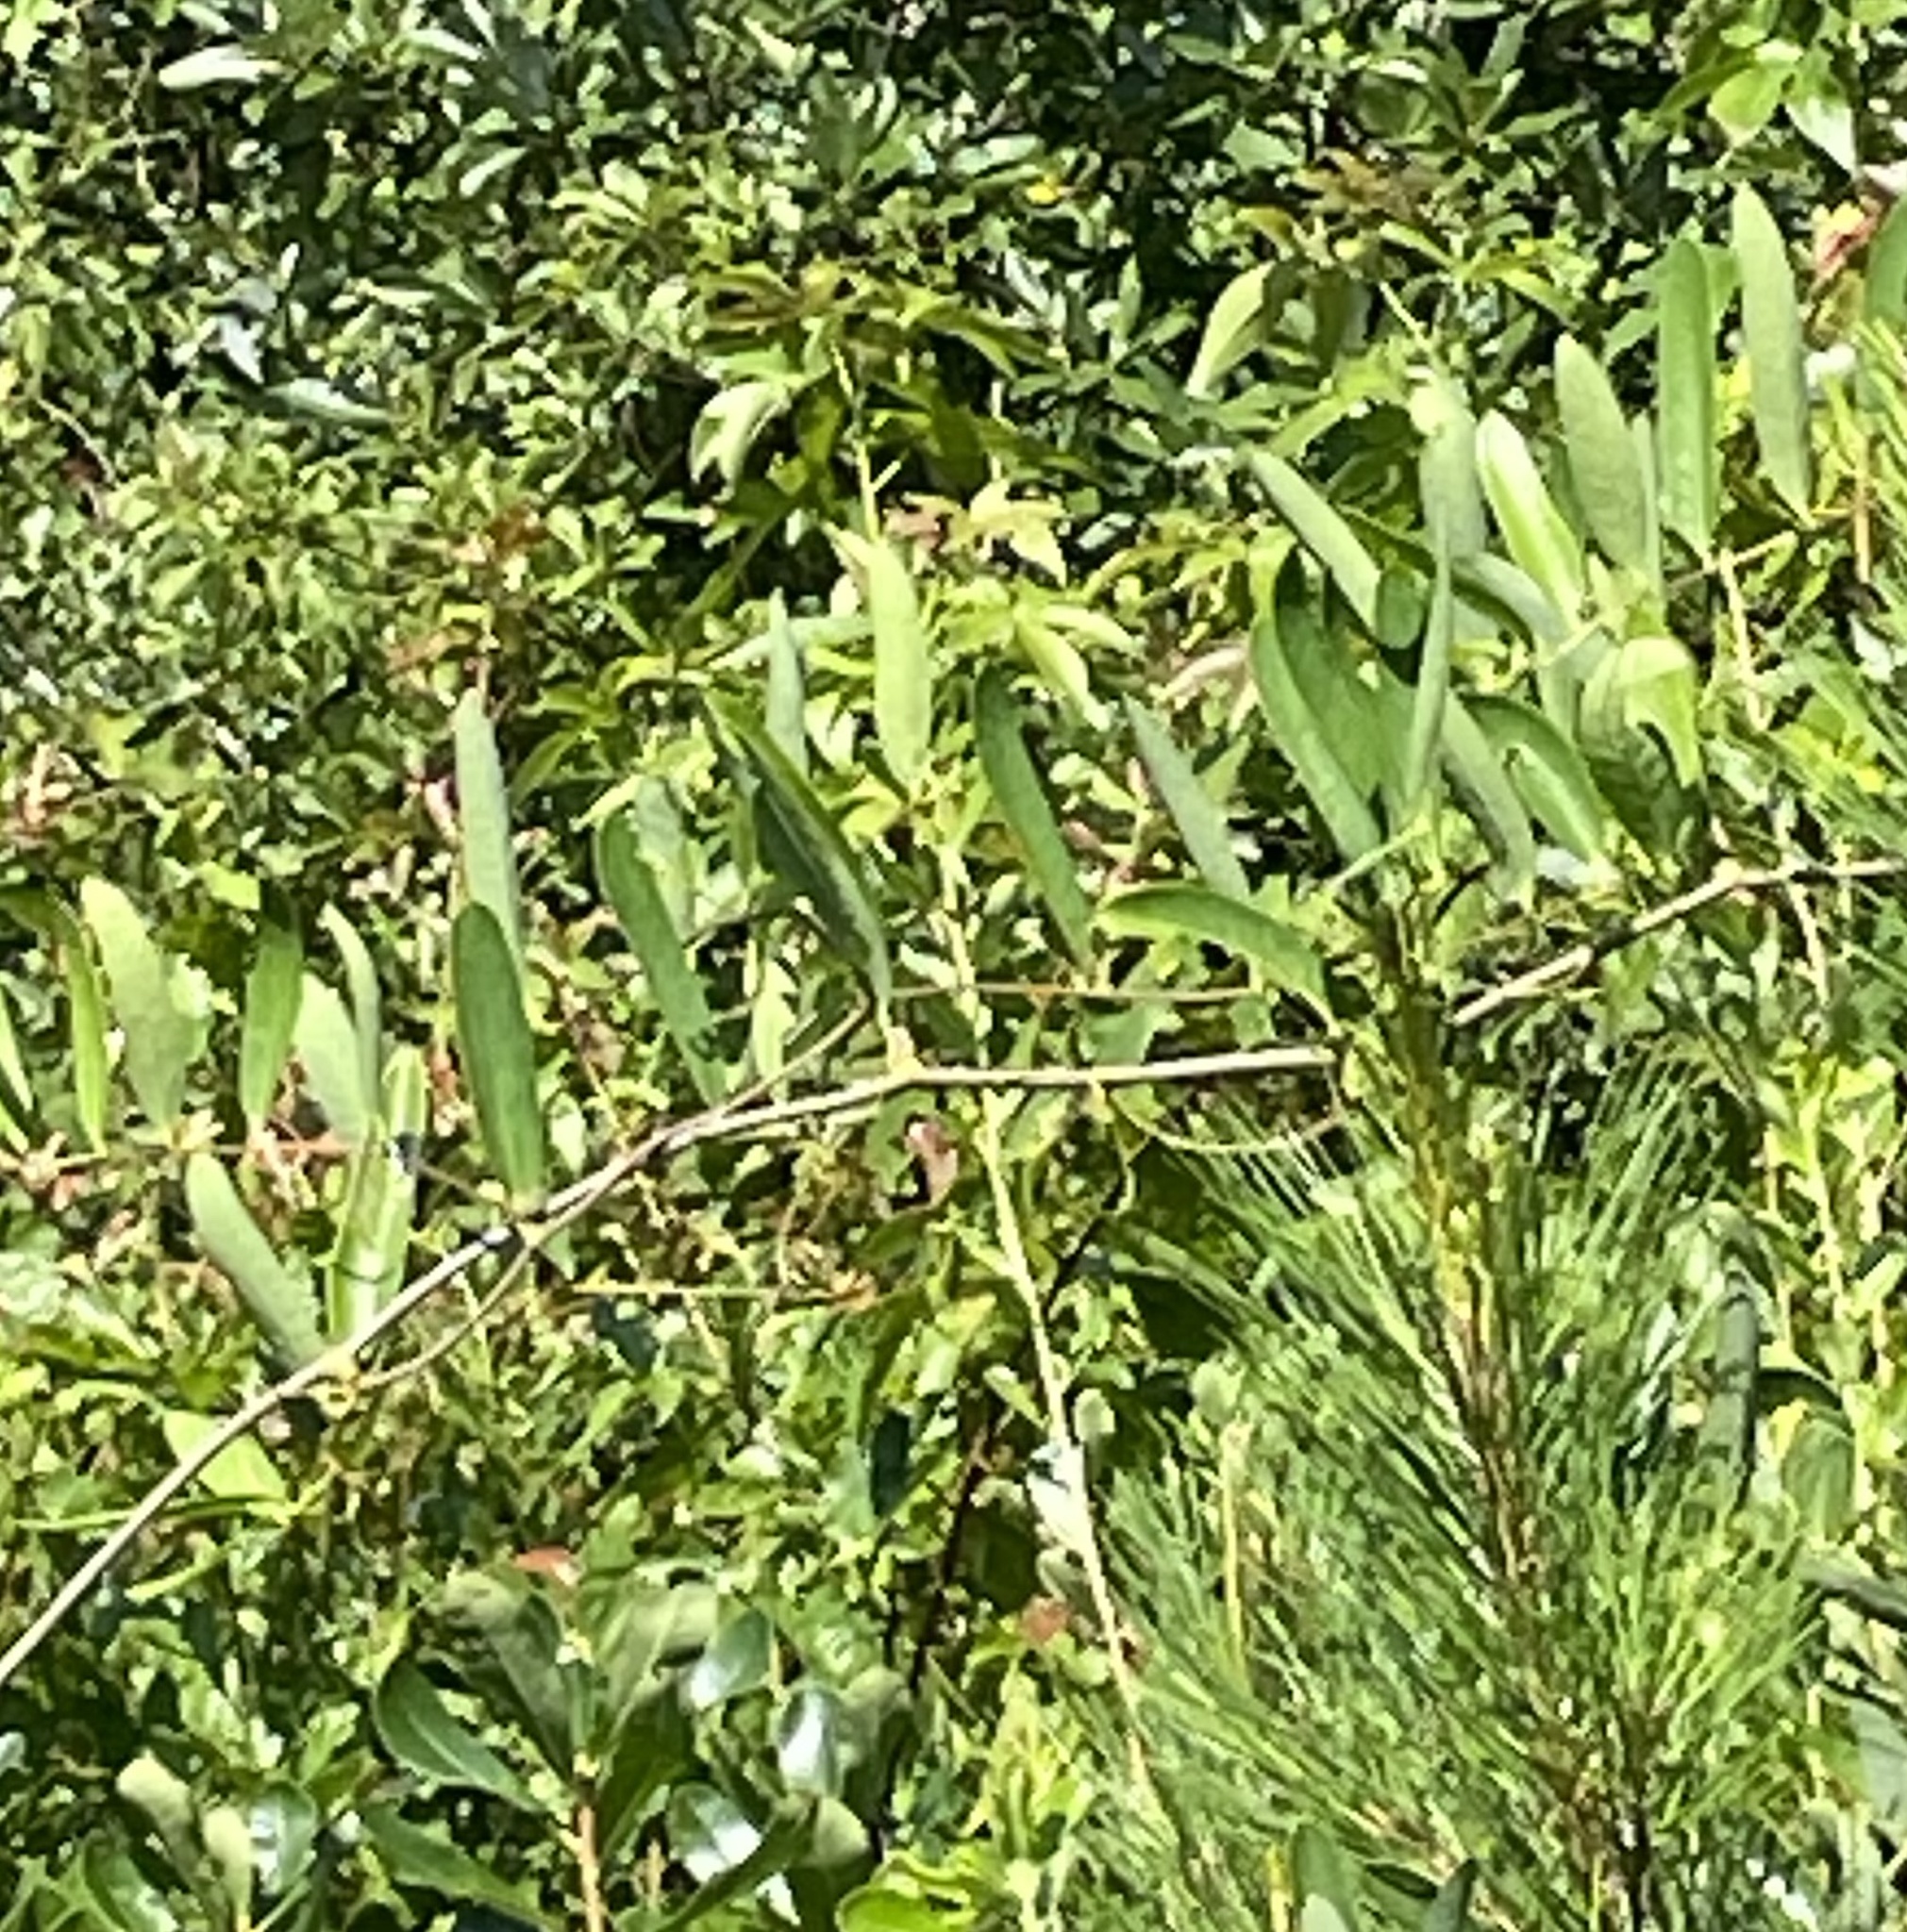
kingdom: Plantae
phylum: Tracheophyta
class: Liliopsida
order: Liliales
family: Smilacaceae
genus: Smilax
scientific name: Smilax laurifolia
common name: Bamboovine
